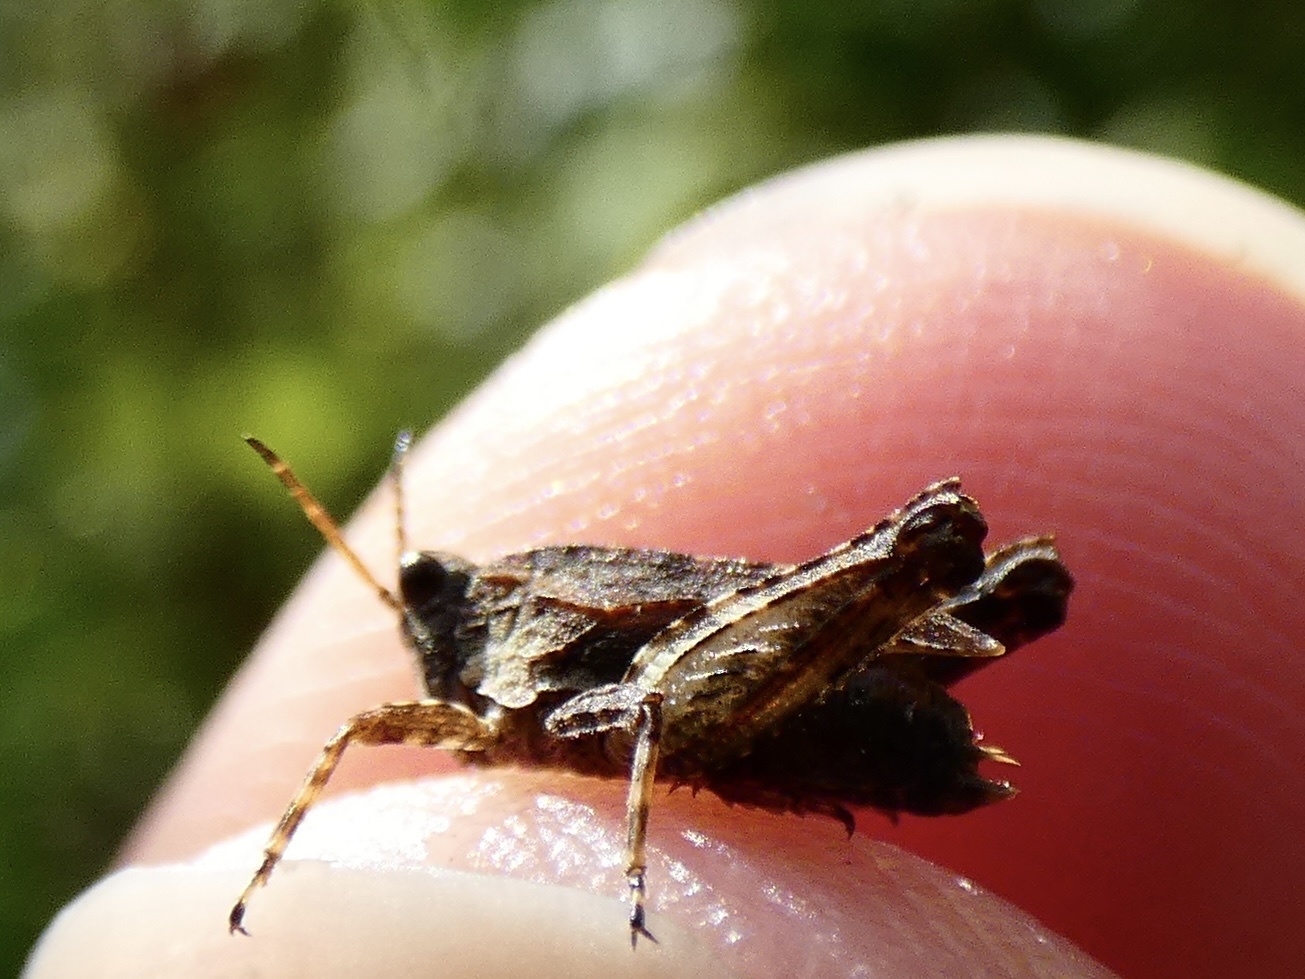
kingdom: Animalia
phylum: Arthropoda
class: Insecta
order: Orthoptera
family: Tetrigidae
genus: Tetrix
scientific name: Tetrix undulata
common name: Common groundhopper
